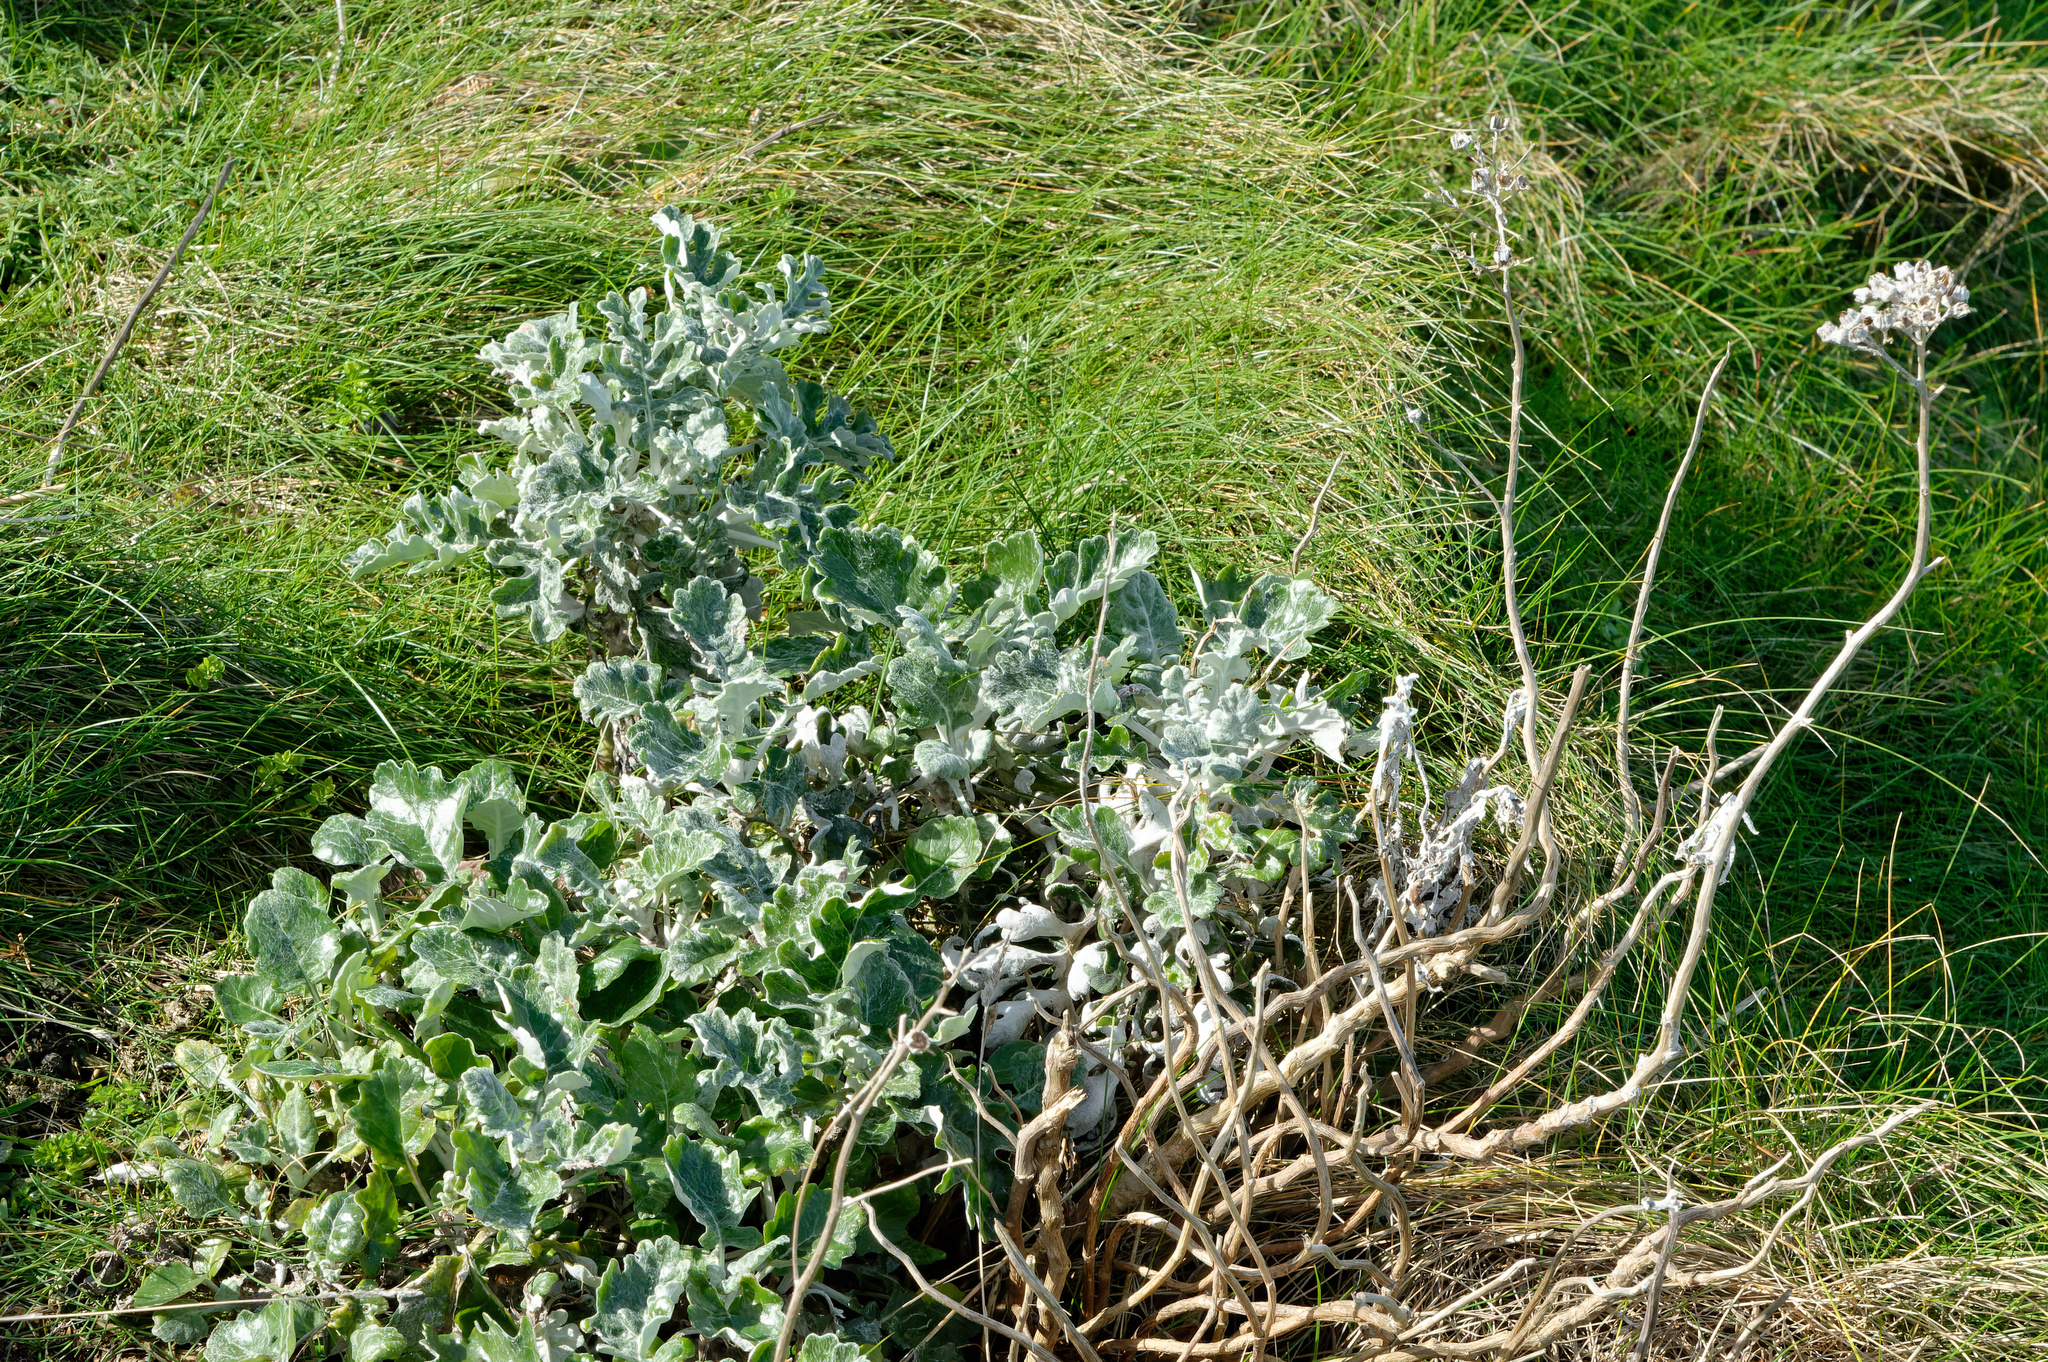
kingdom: Plantae
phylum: Tracheophyta
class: Magnoliopsida
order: Asterales
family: Asteraceae
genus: Jacobaea
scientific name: Jacobaea maritima
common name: Silver ragwort
